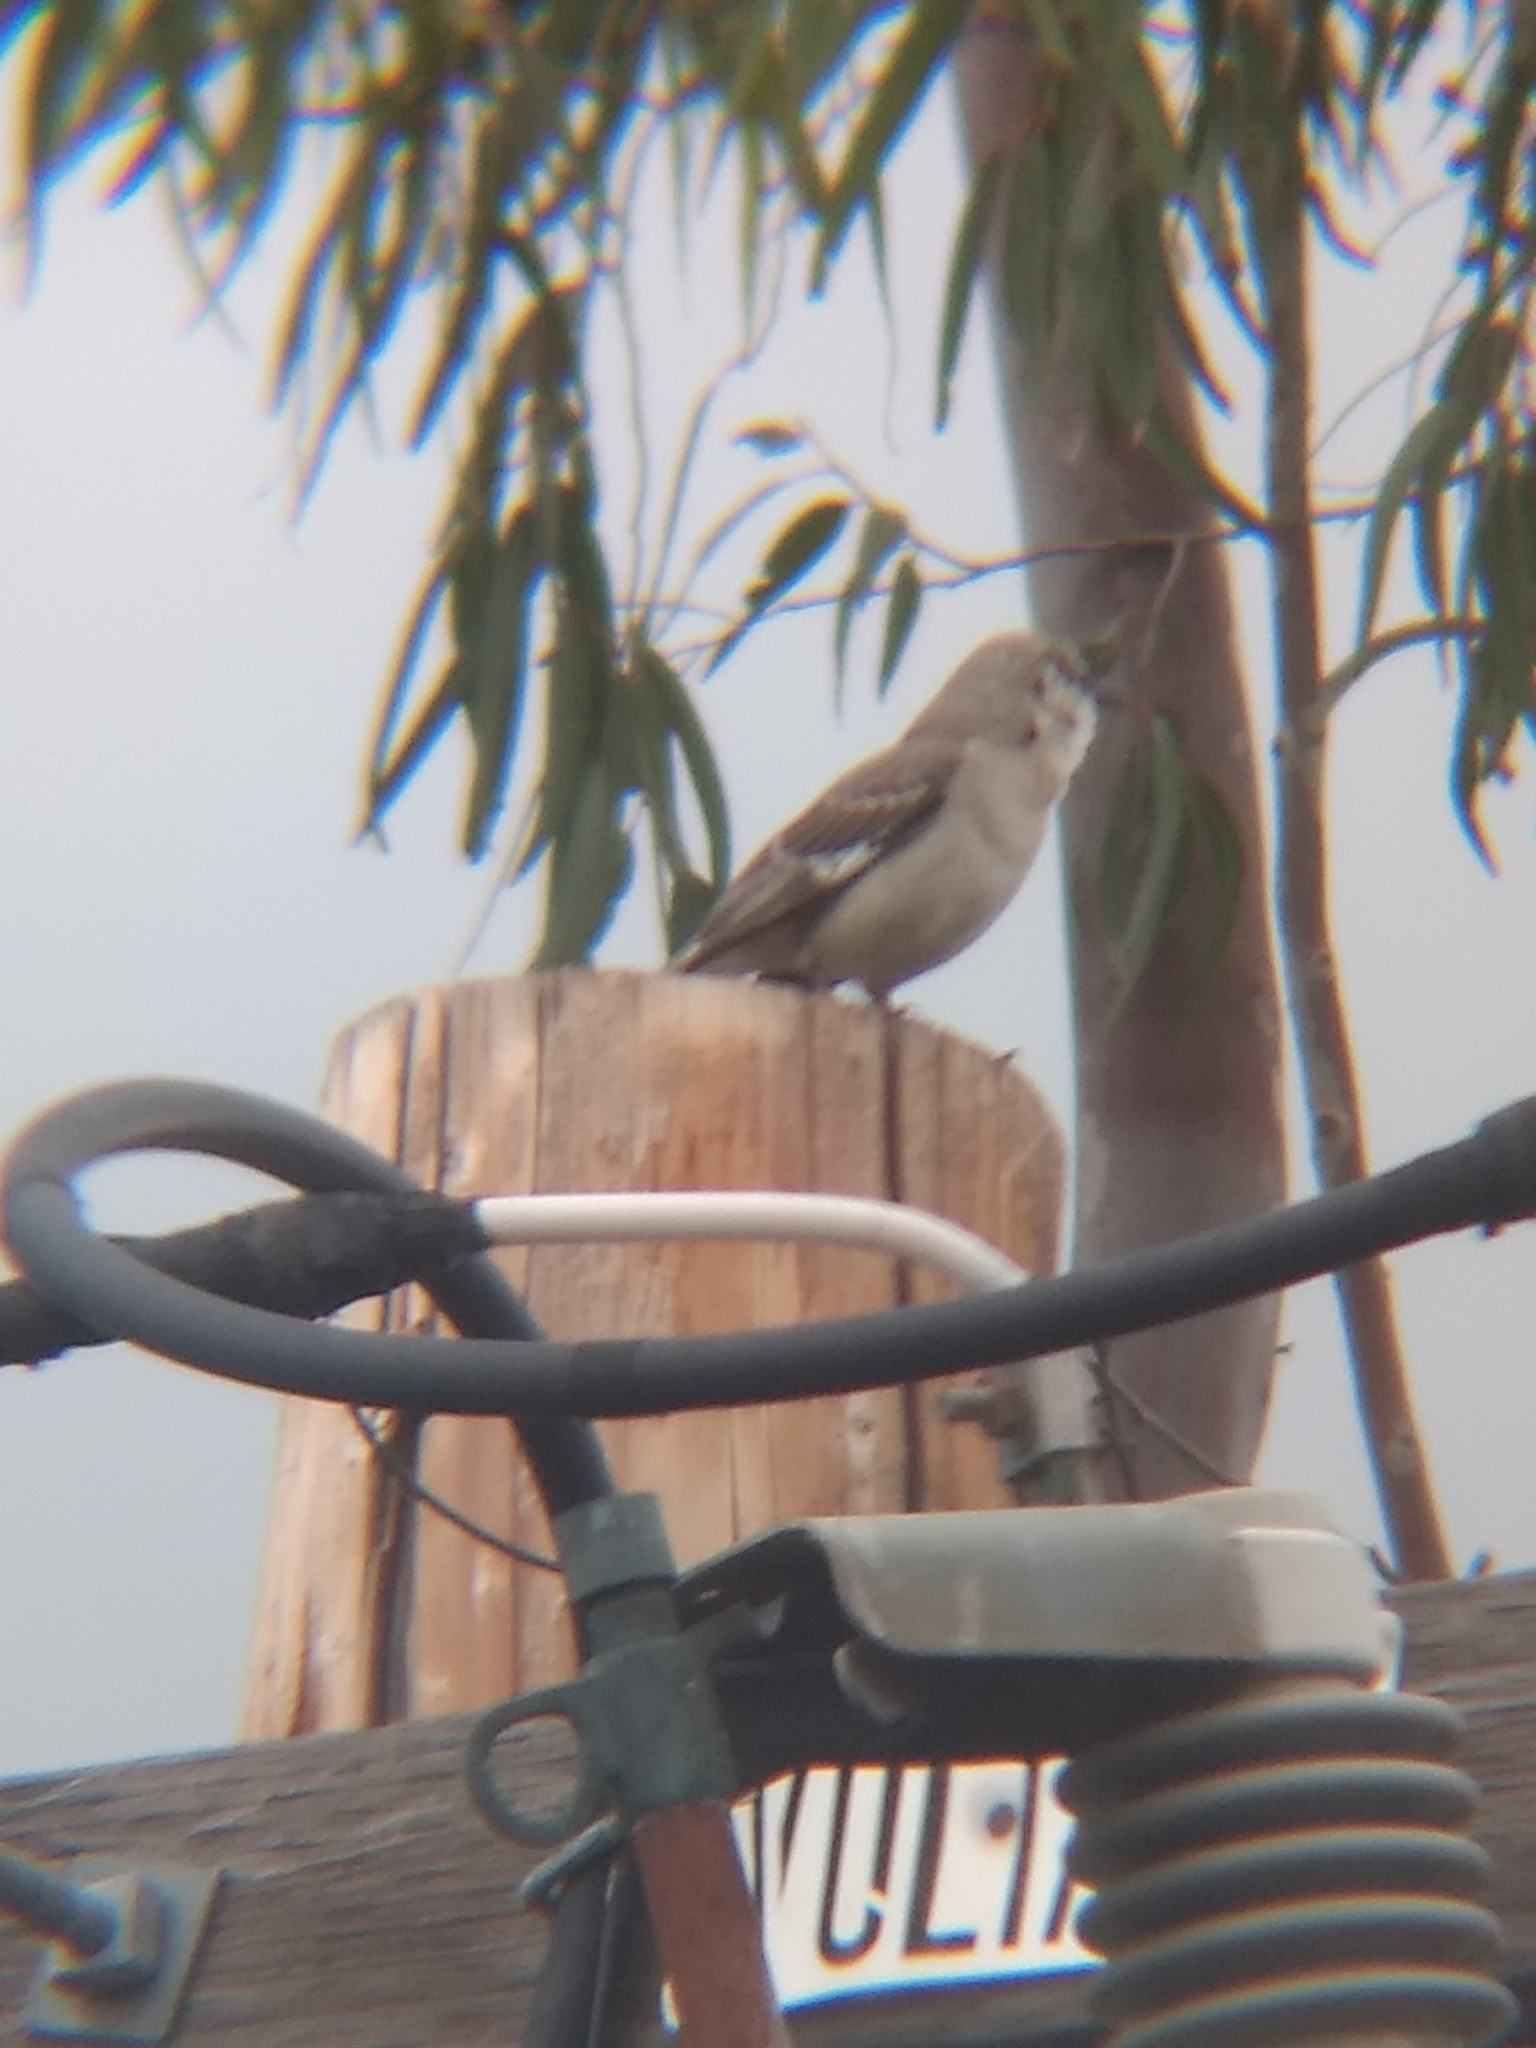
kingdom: Animalia
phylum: Chordata
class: Aves
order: Passeriformes
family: Mimidae
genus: Mimus
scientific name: Mimus polyglottos
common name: Northern mockingbird
